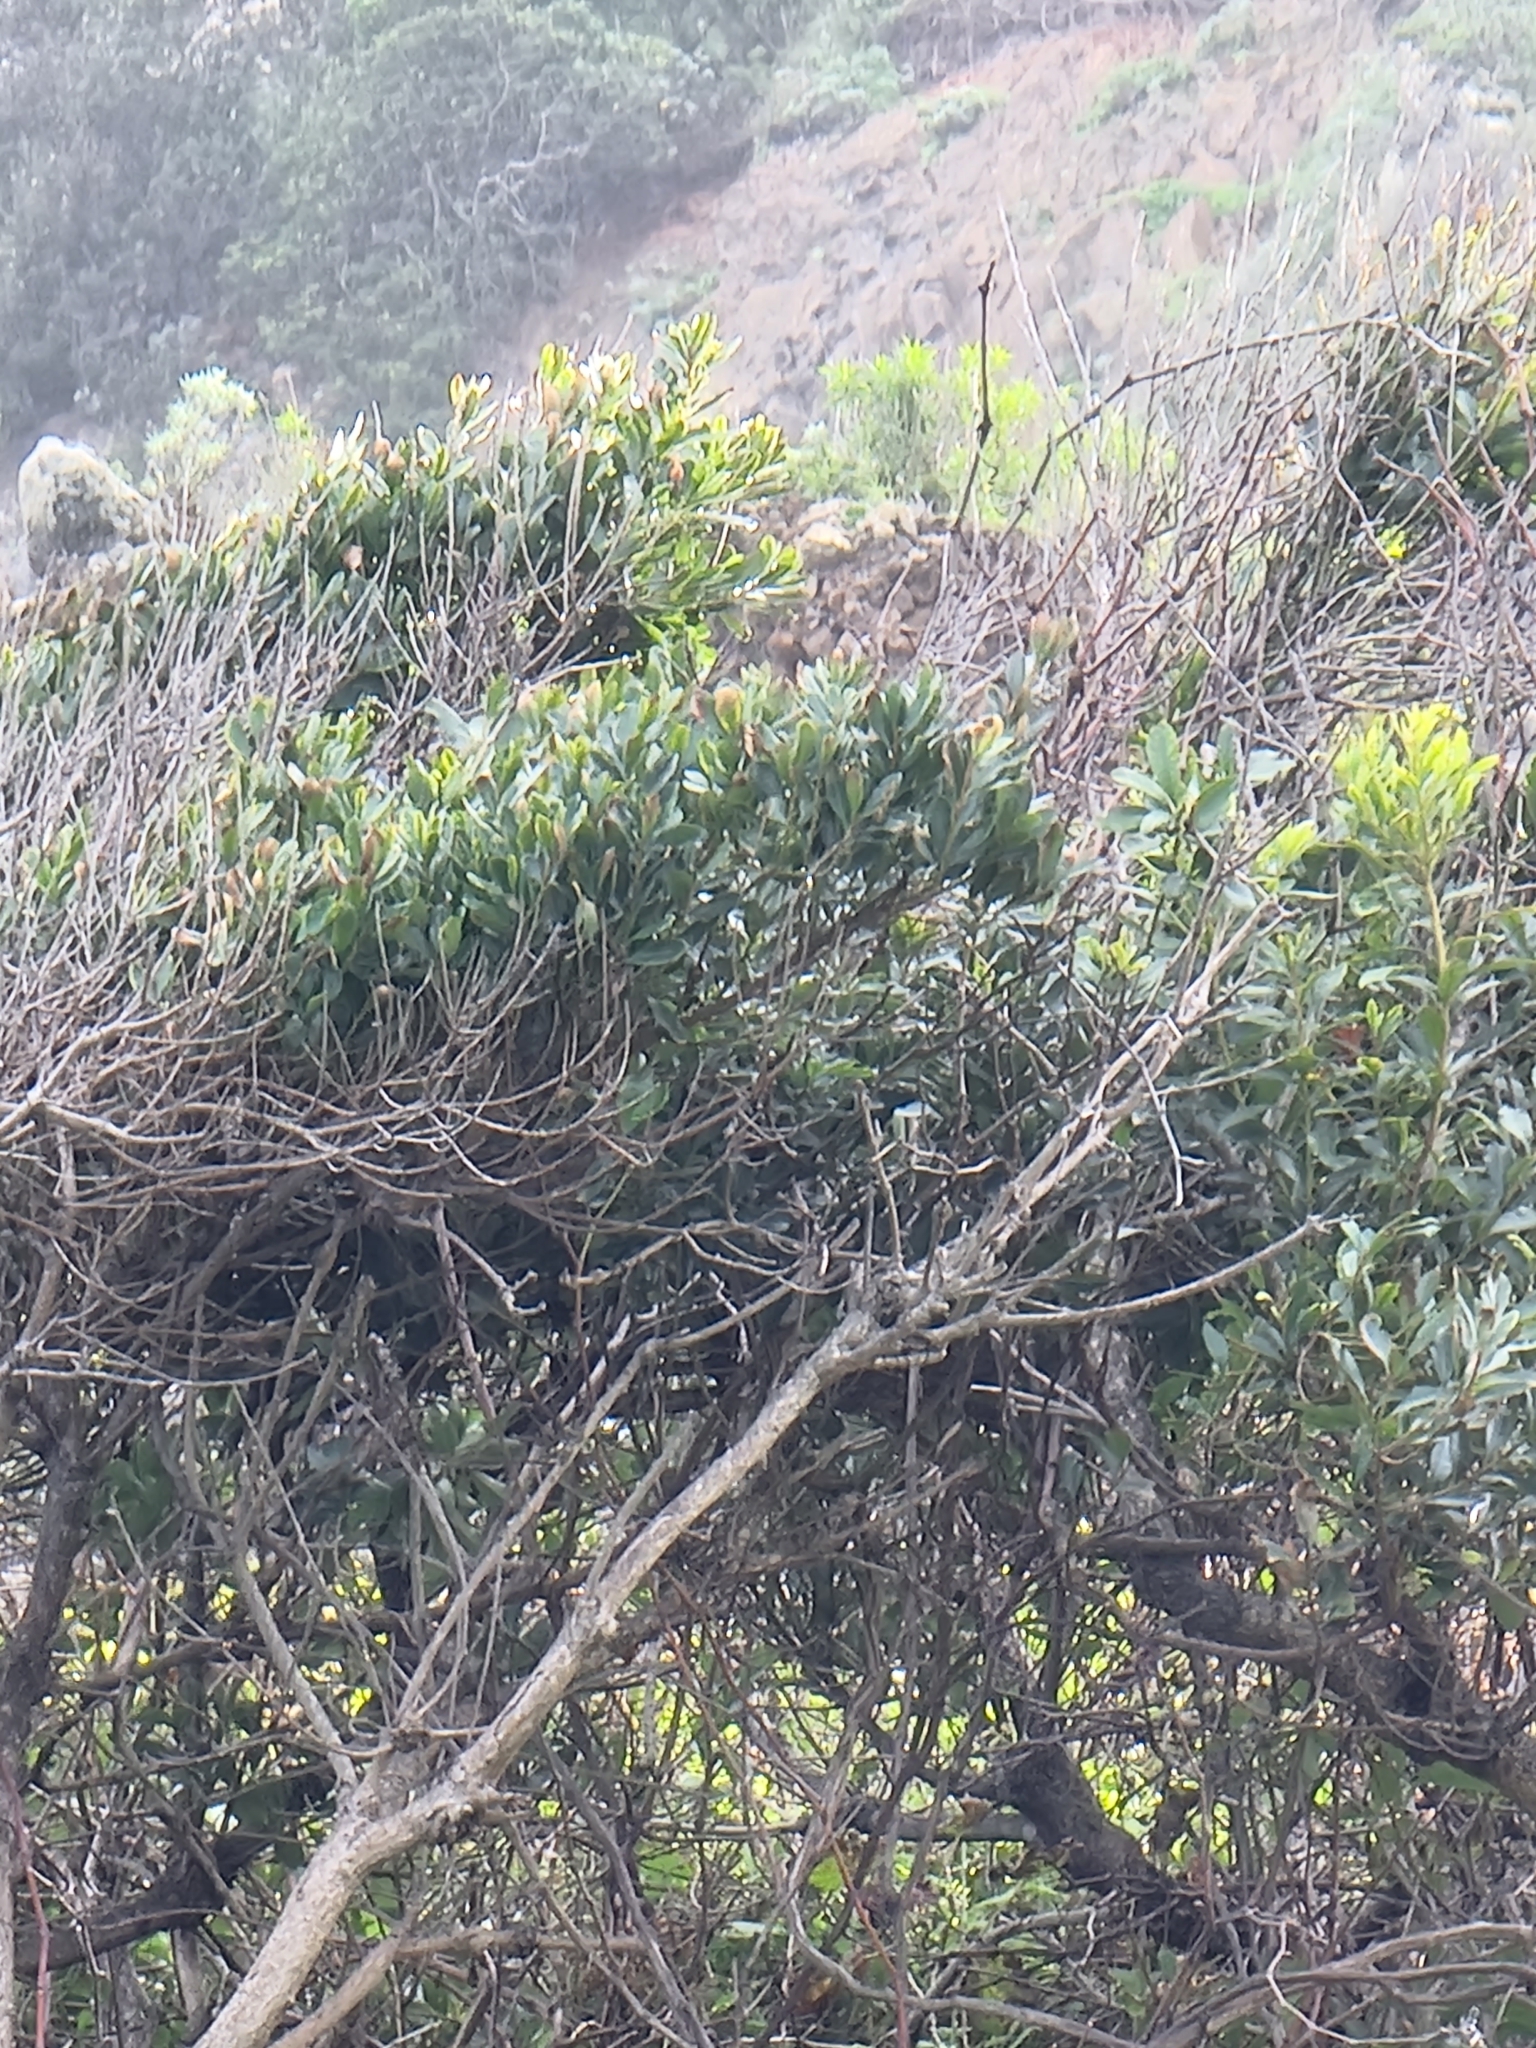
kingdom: Plantae
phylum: Tracheophyta
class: Magnoliopsida
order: Fagales
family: Myricaceae
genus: Morella
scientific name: Morella faya
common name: Firetree
